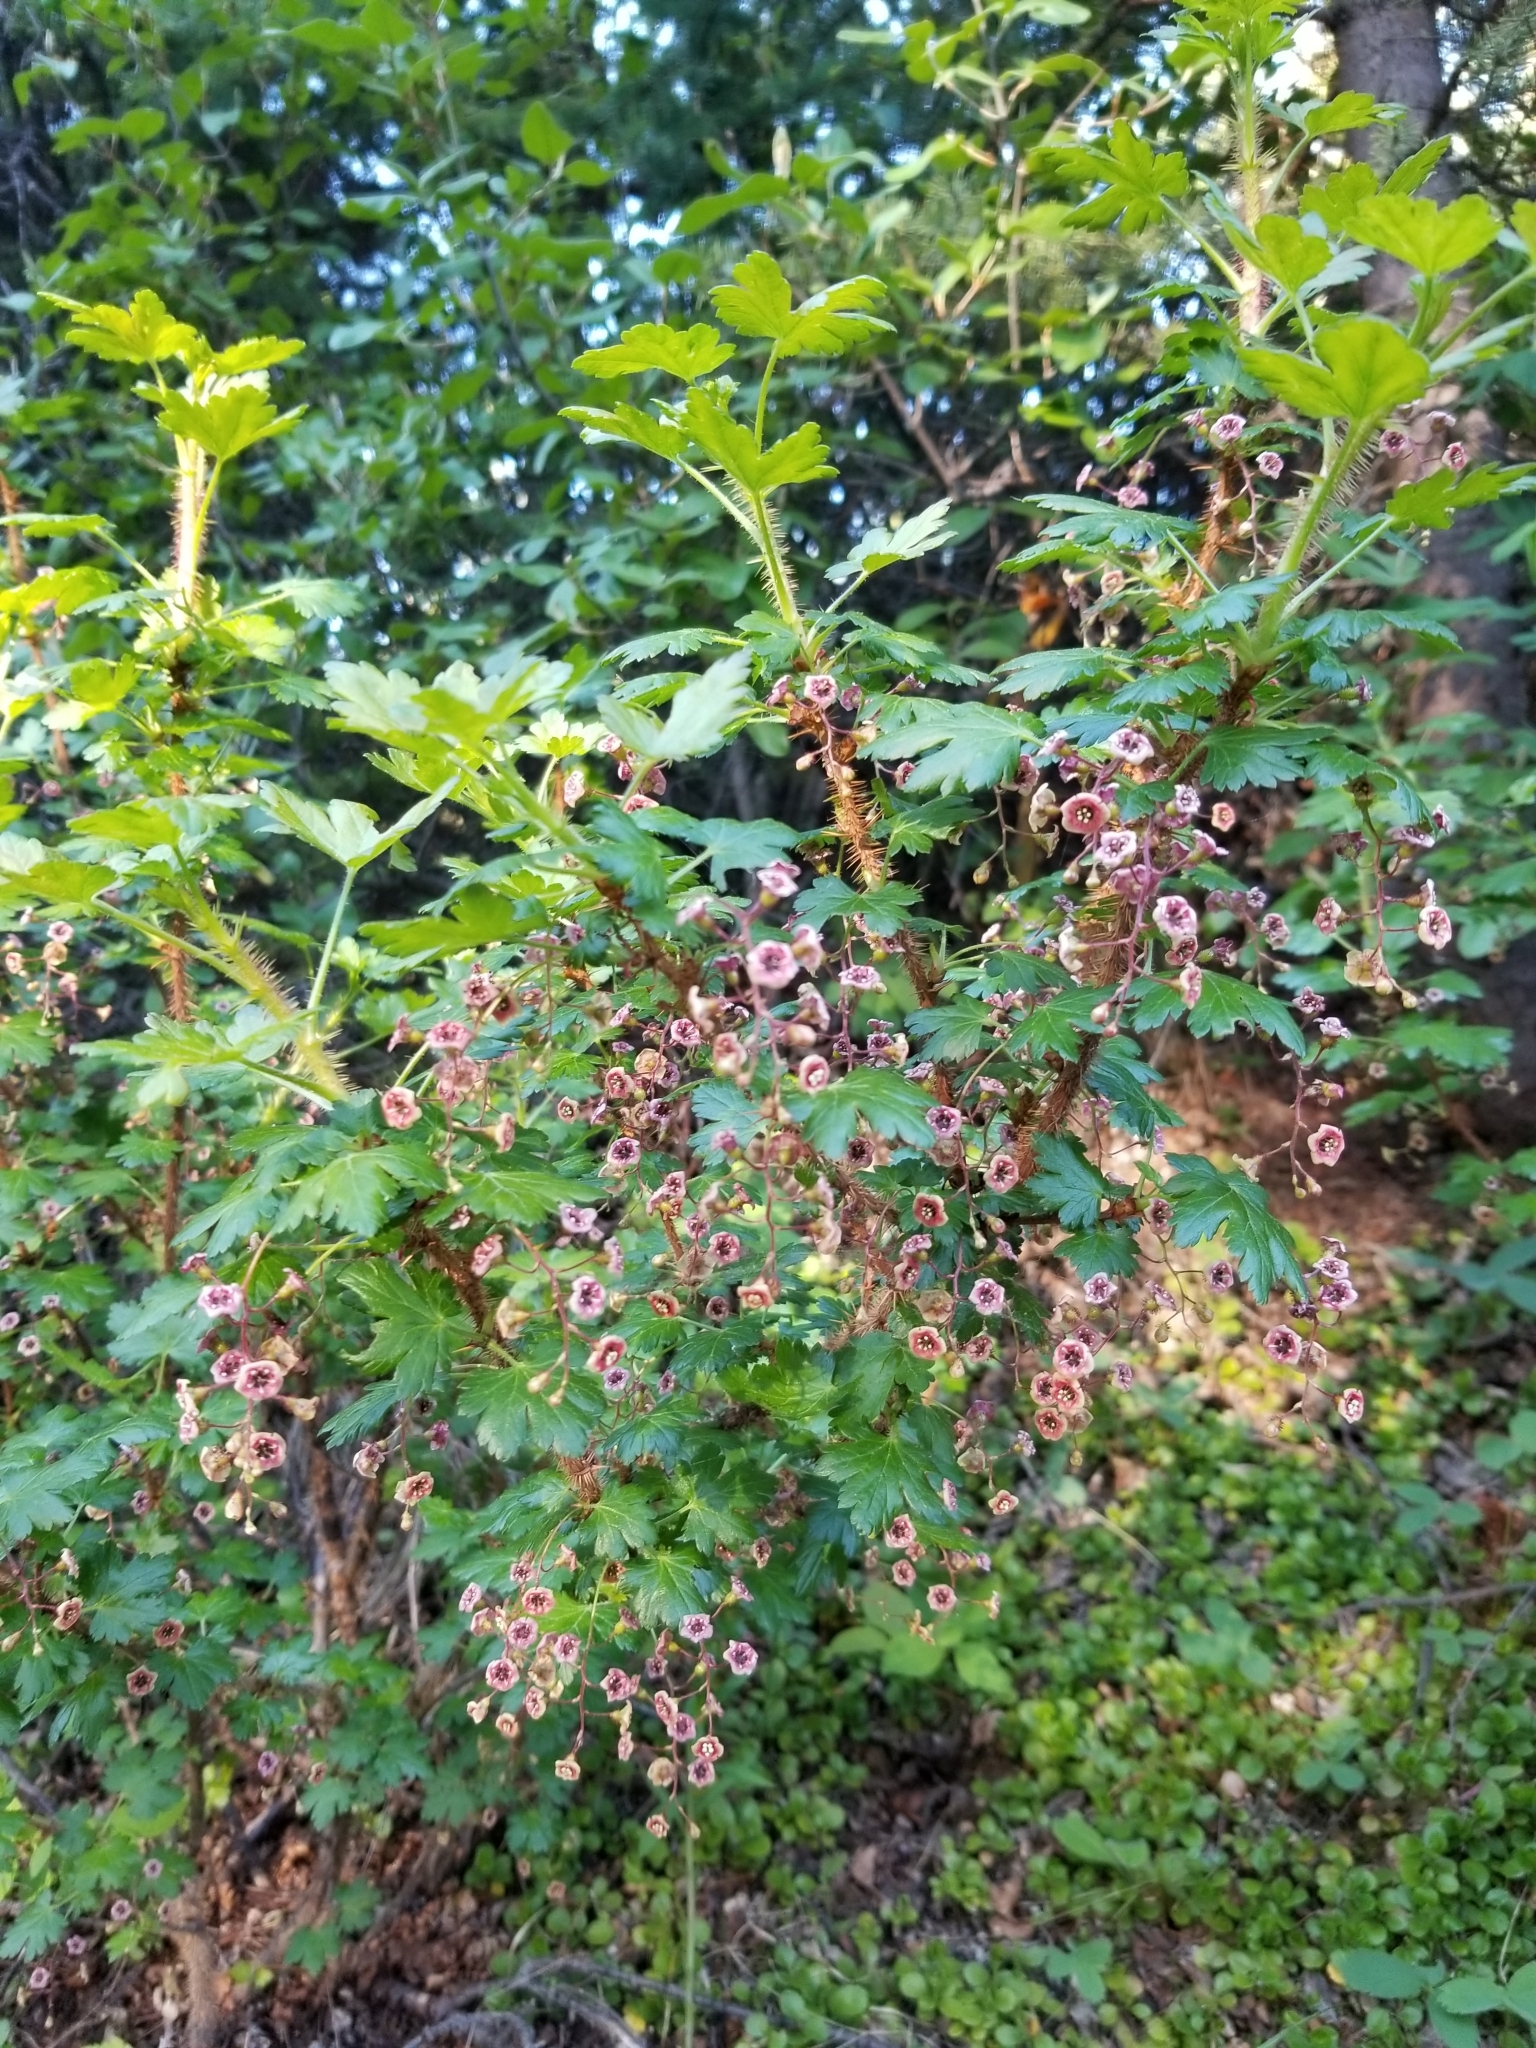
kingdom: Plantae
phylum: Tracheophyta
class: Magnoliopsida
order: Saxifragales
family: Grossulariaceae
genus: Ribes
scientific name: Ribes lacustre
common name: Black gooseberry
